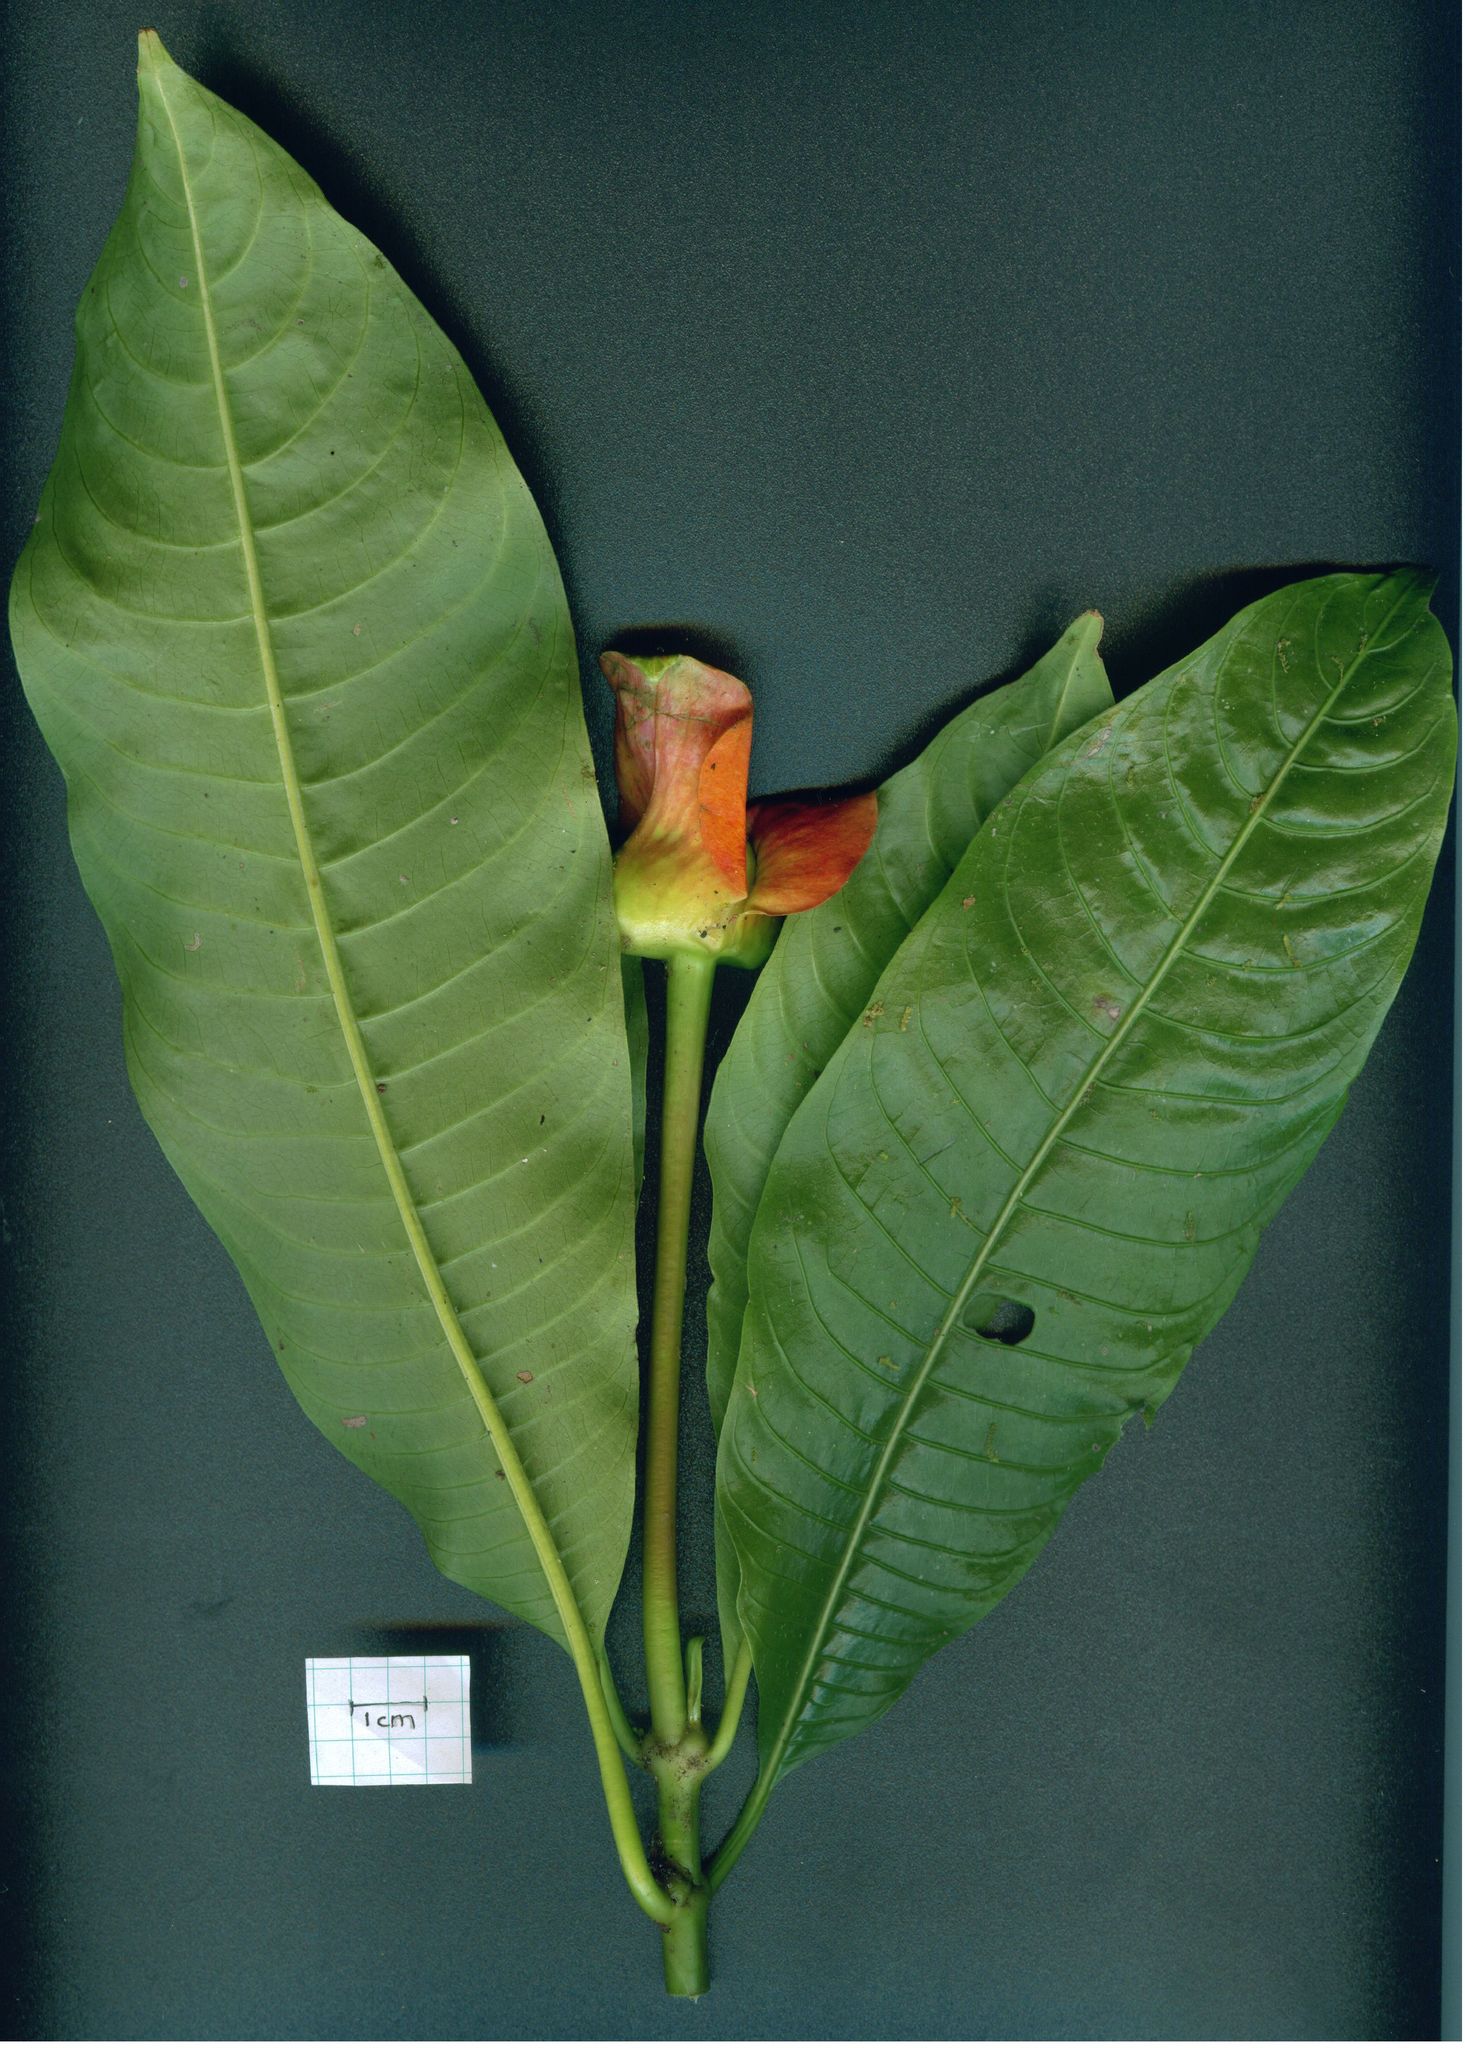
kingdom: Plantae
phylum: Tracheophyta
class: Magnoliopsida
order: Gentianales
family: Rubiaceae
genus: Palicourea
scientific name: Palicourea elata
